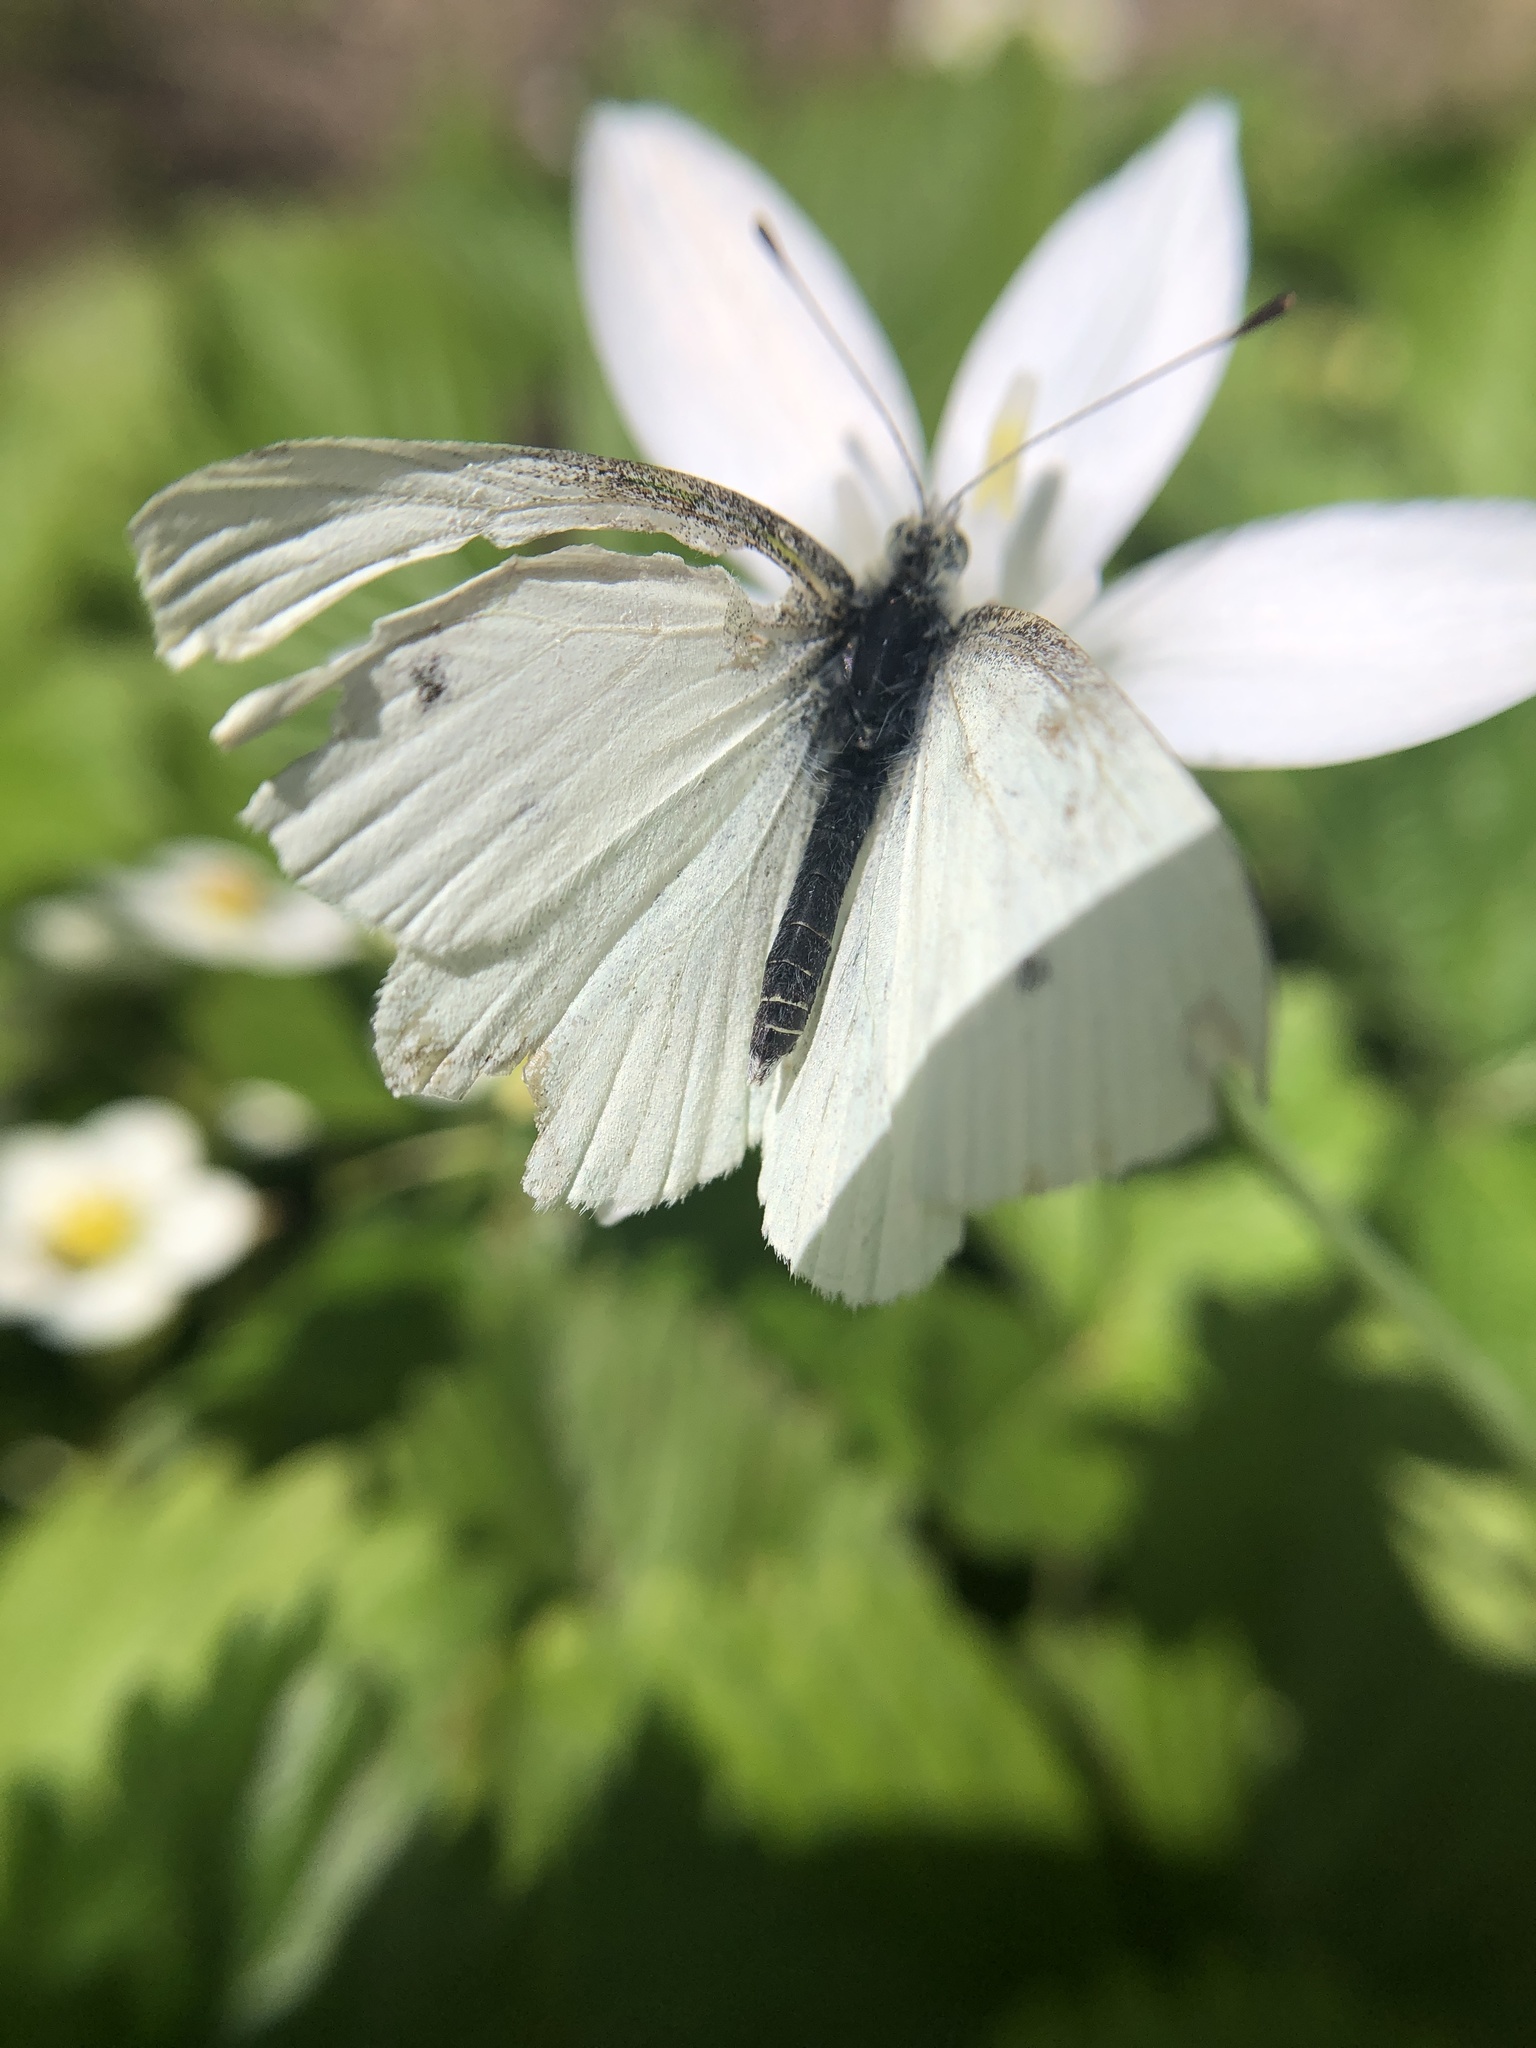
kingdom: Animalia
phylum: Arthropoda
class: Insecta
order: Lepidoptera
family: Pieridae
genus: Pieris
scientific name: Pieris rapae
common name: Small white
